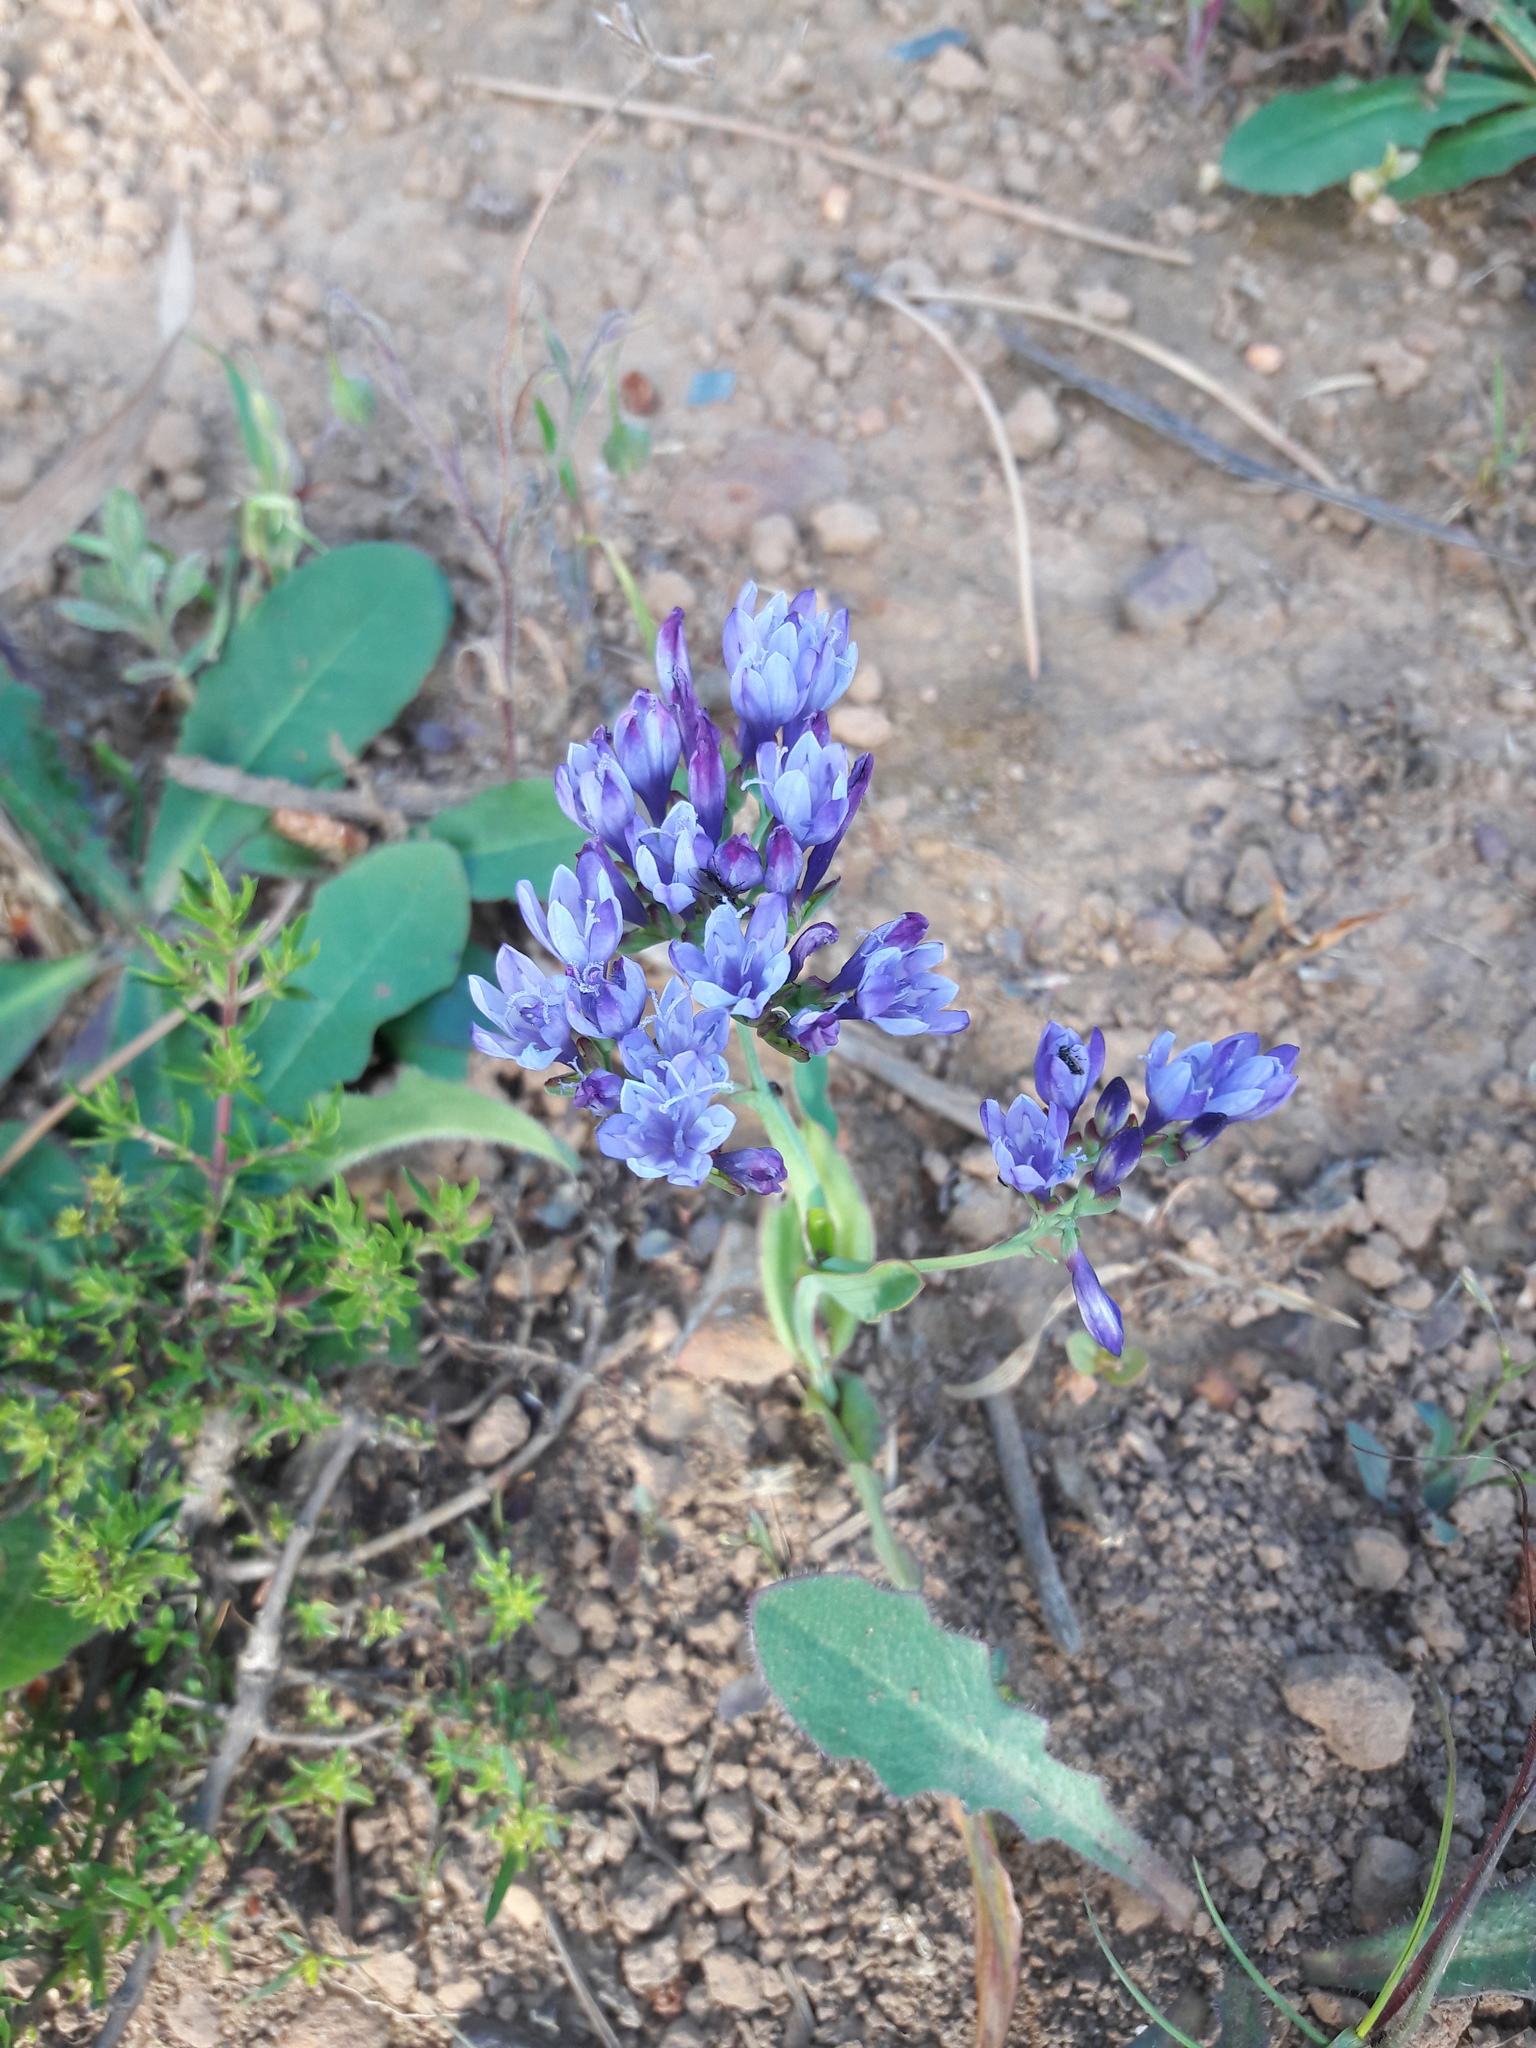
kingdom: Plantae
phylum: Tracheophyta
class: Liliopsida
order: Asparagales
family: Iridaceae
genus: Codonorhiza
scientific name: Codonorhiza corymbosa
